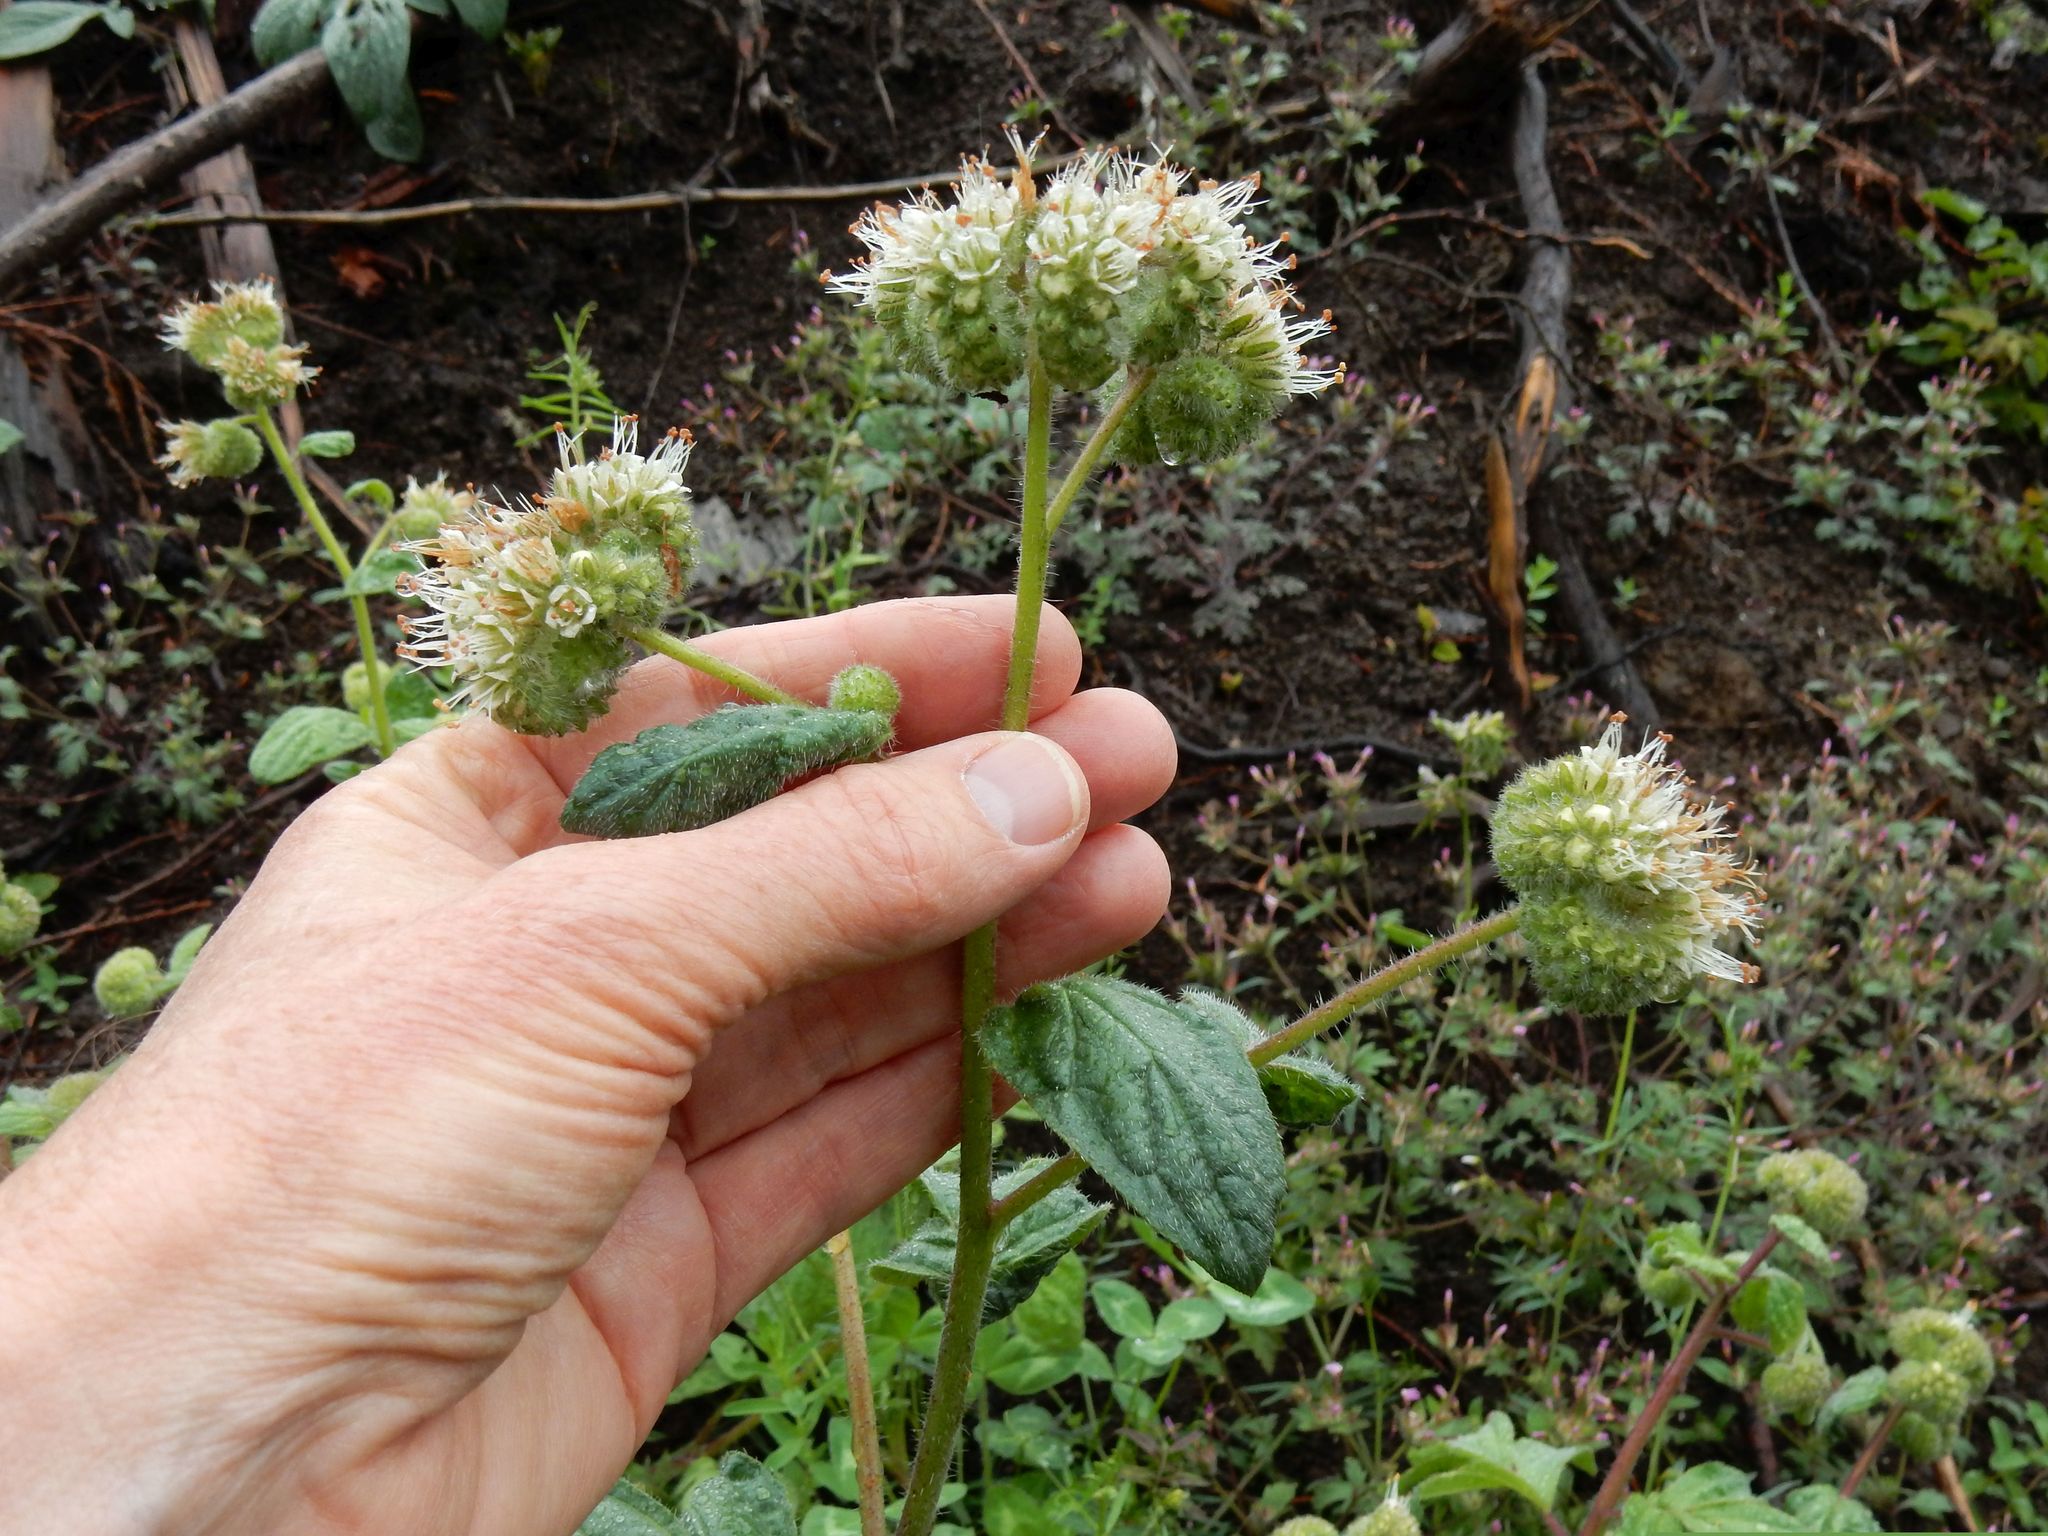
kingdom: Plantae
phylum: Tracheophyta
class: Magnoliopsida
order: Boraginales
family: Hydrophyllaceae
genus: Phacelia
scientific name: Phacelia nemoralis
